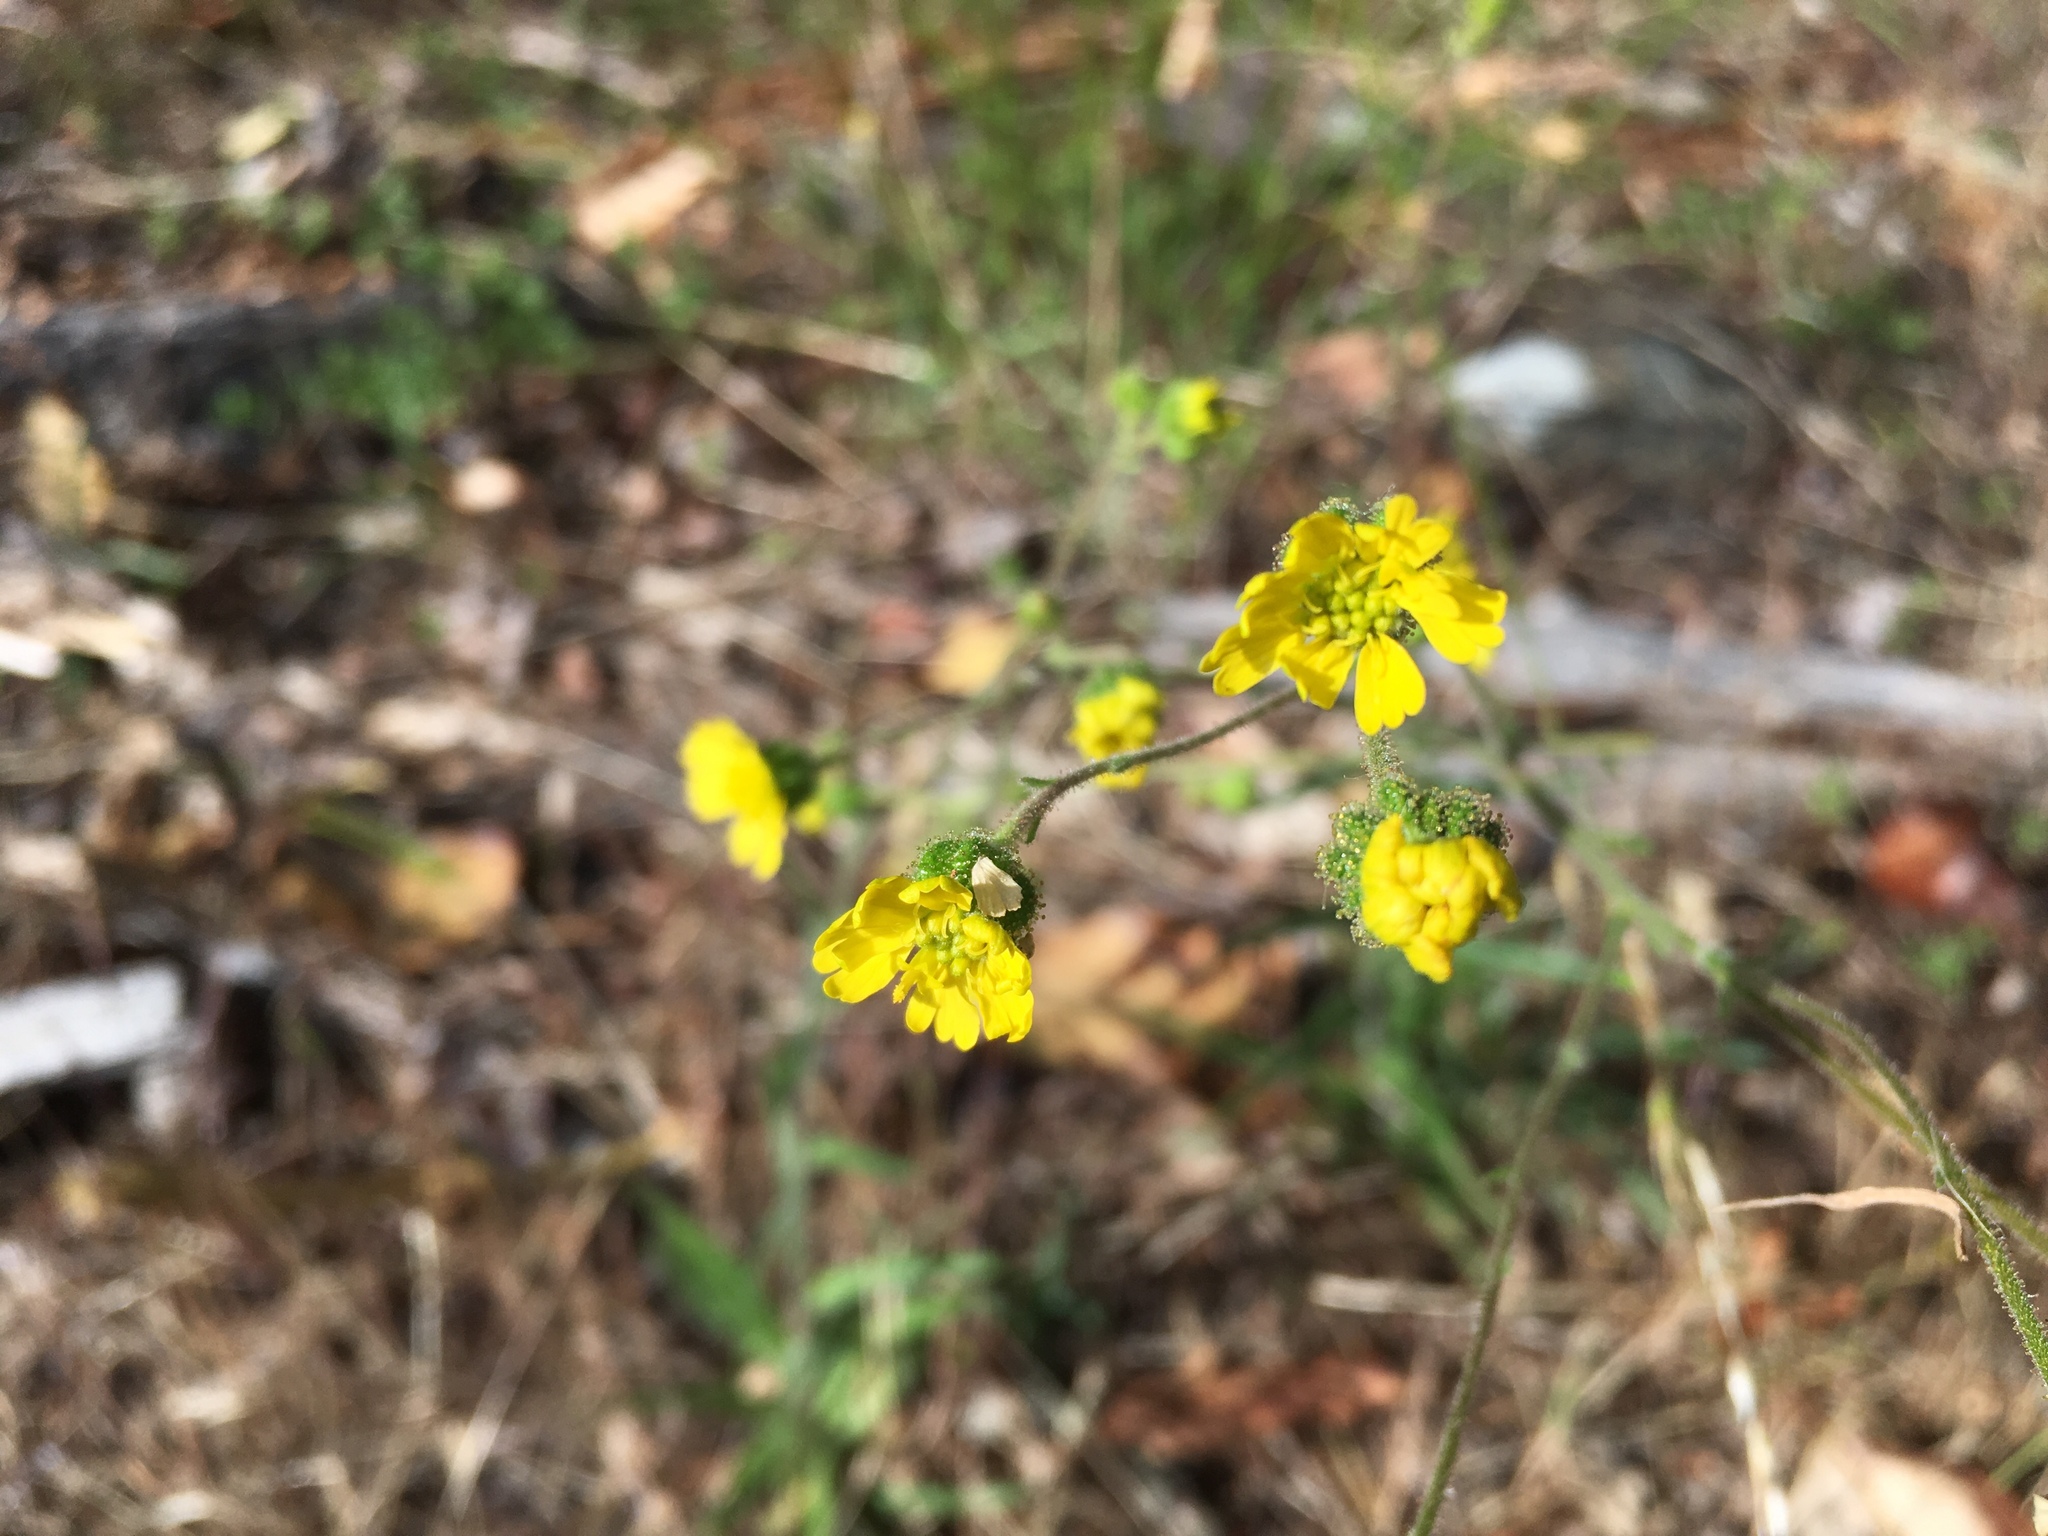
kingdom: Plantae
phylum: Tracheophyta
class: Magnoliopsida
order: Asterales
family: Asteraceae
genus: Anisocarpus
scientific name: Anisocarpus madioides
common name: Woodland madia
